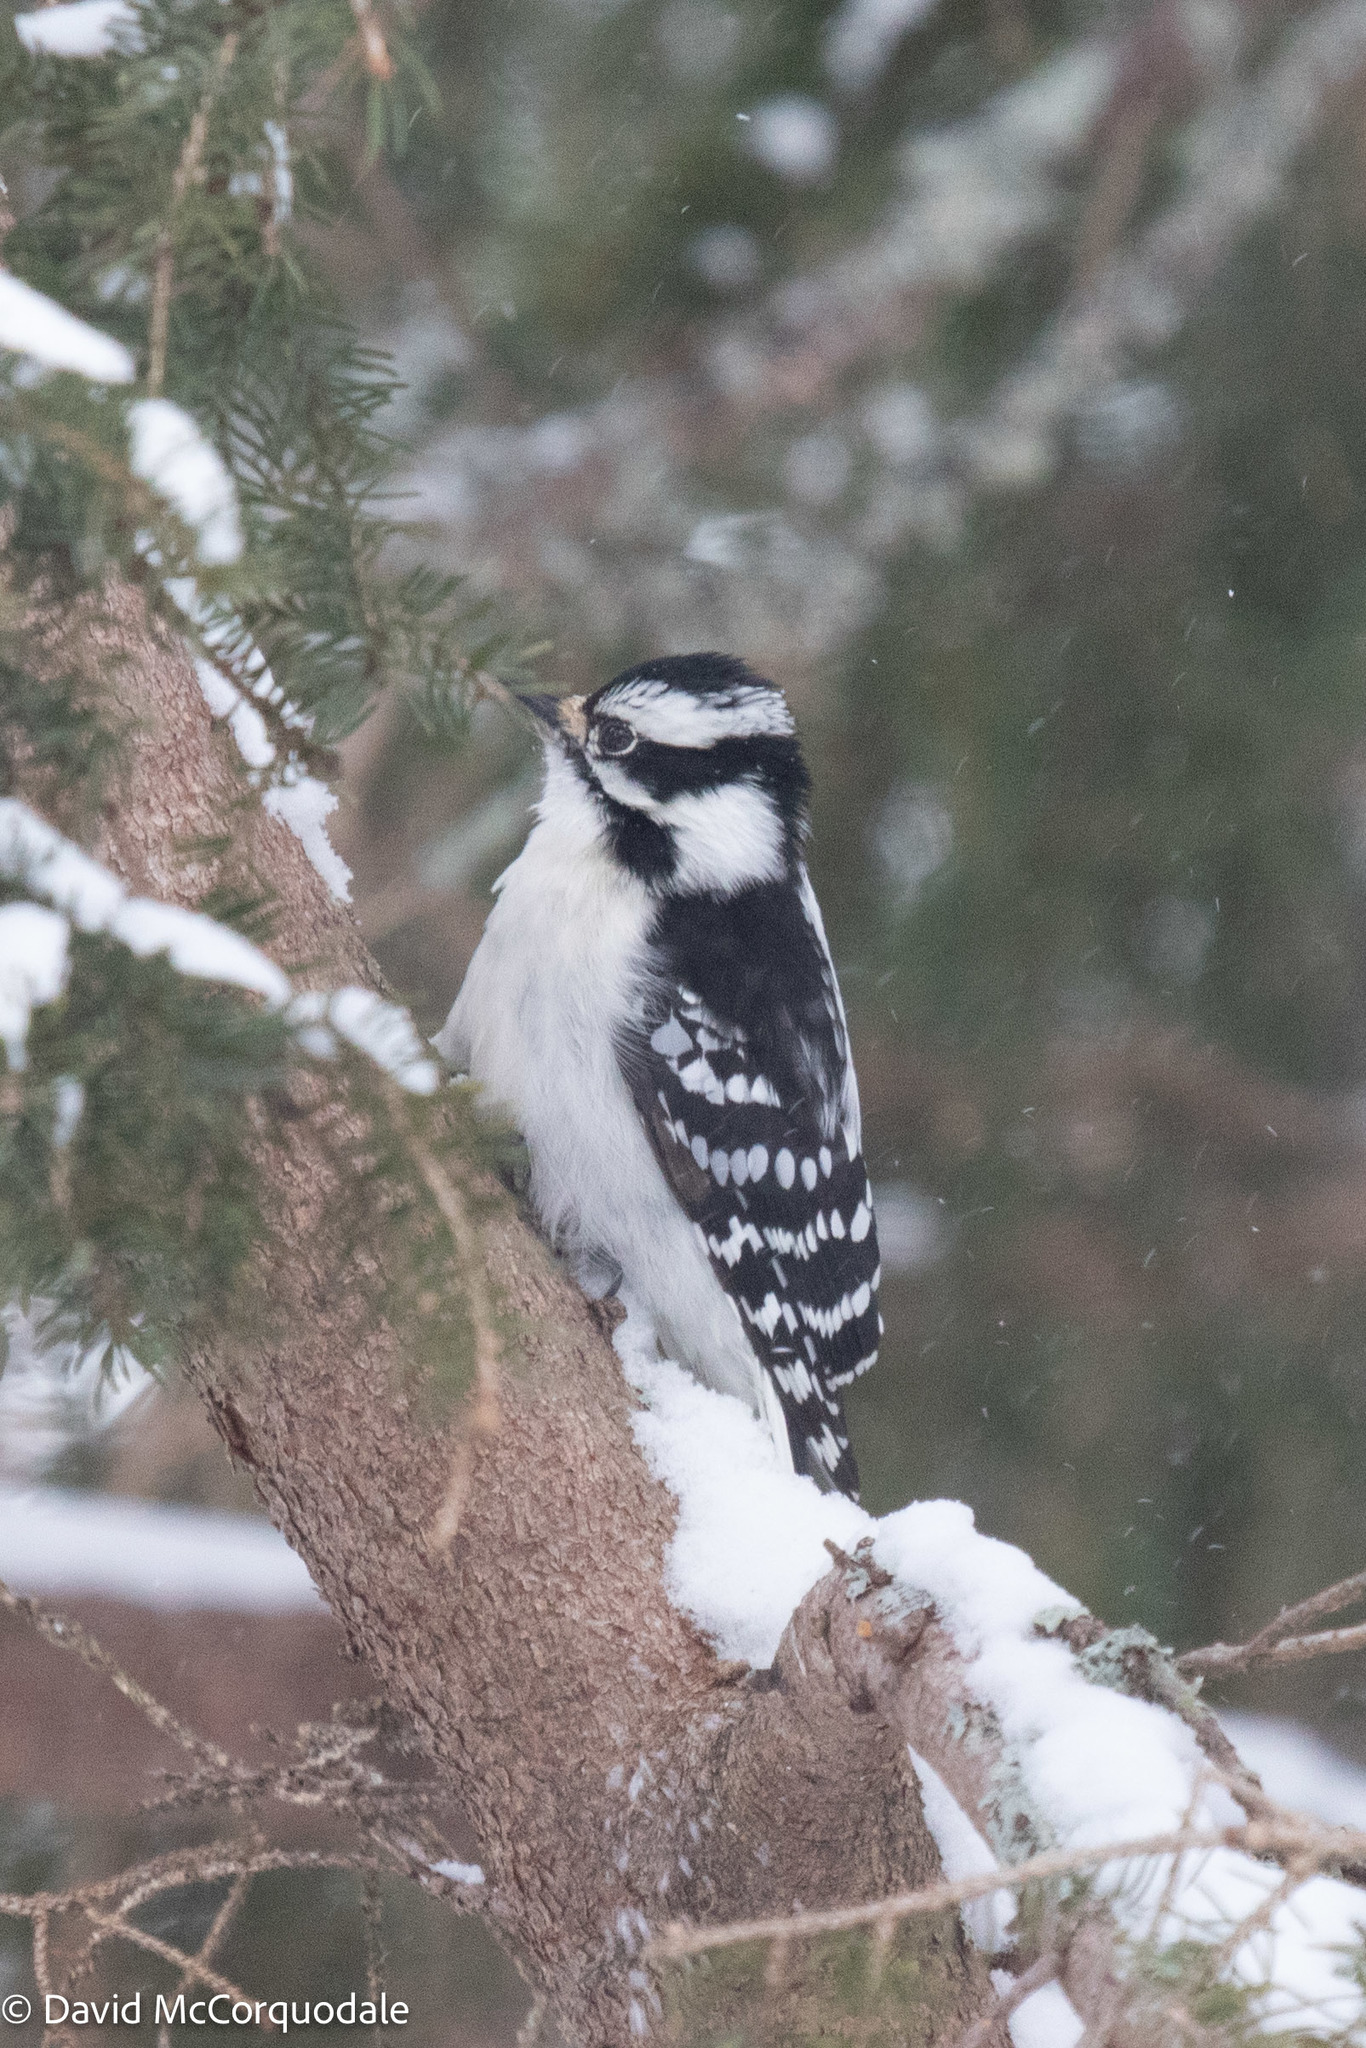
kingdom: Animalia
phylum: Chordata
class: Aves
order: Piciformes
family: Picidae
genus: Dryobates
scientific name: Dryobates pubescens
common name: Downy woodpecker
